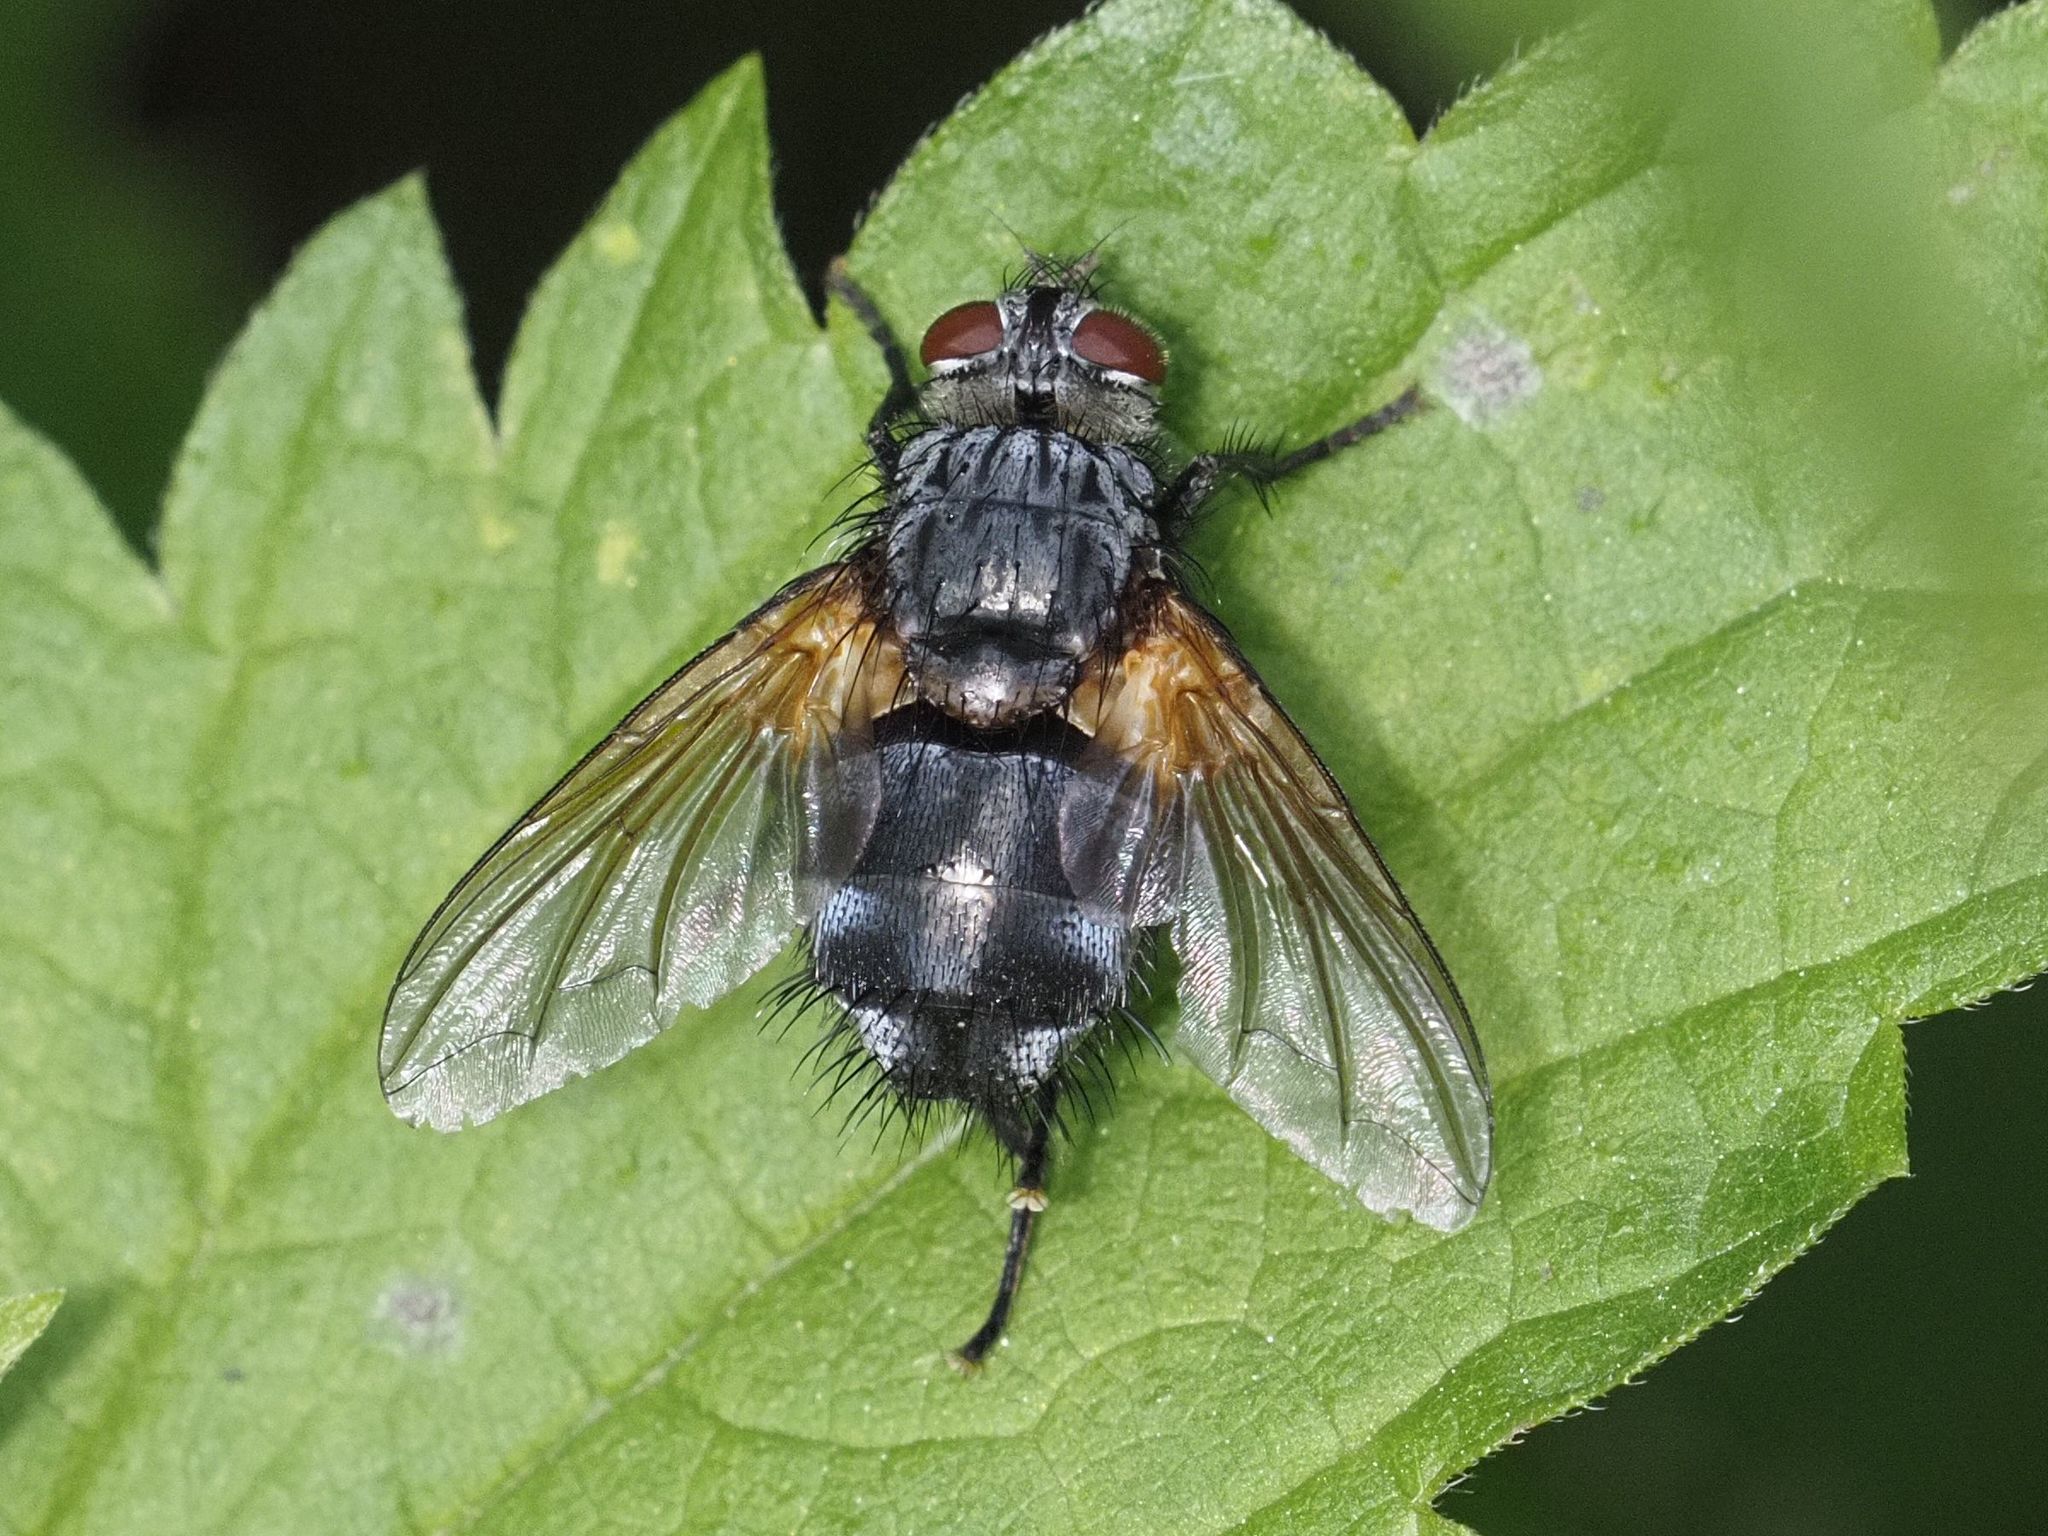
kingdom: Animalia
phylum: Arthropoda
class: Insecta
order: Diptera
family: Tachinidae
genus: Nemoraea
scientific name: Nemoraea pellucida
